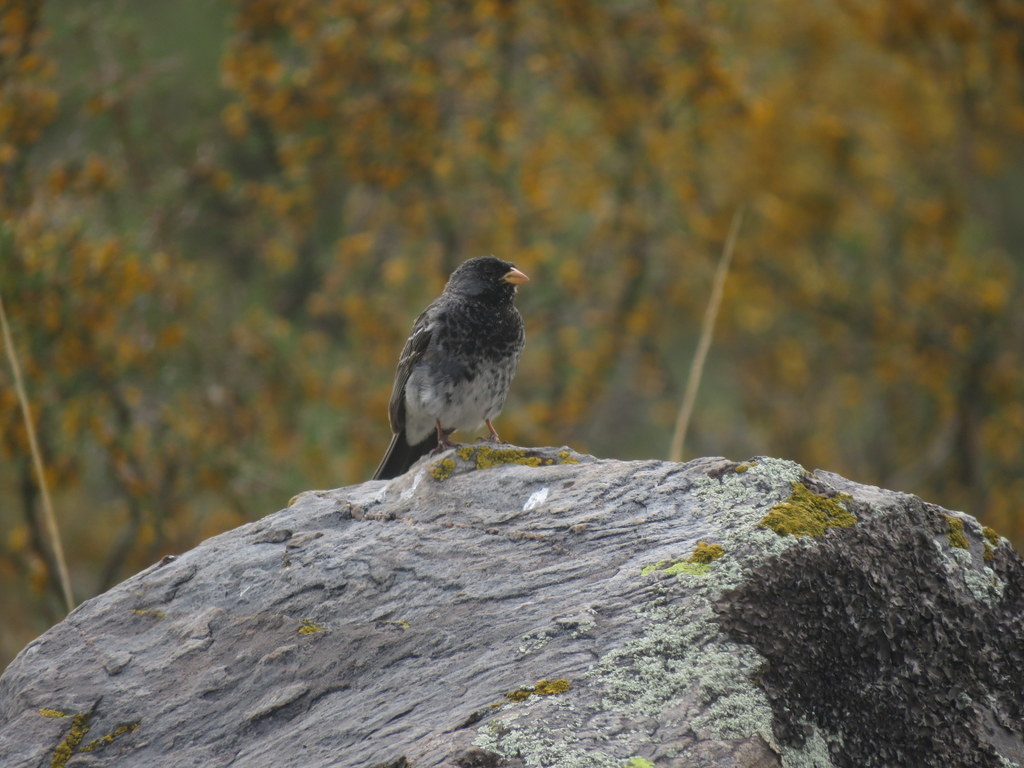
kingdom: Animalia
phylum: Chordata
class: Aves
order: Passeriformes
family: Thraupidae
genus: Rhopospina
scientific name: Rhopospina fruticeti
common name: Mourning sierra finch
